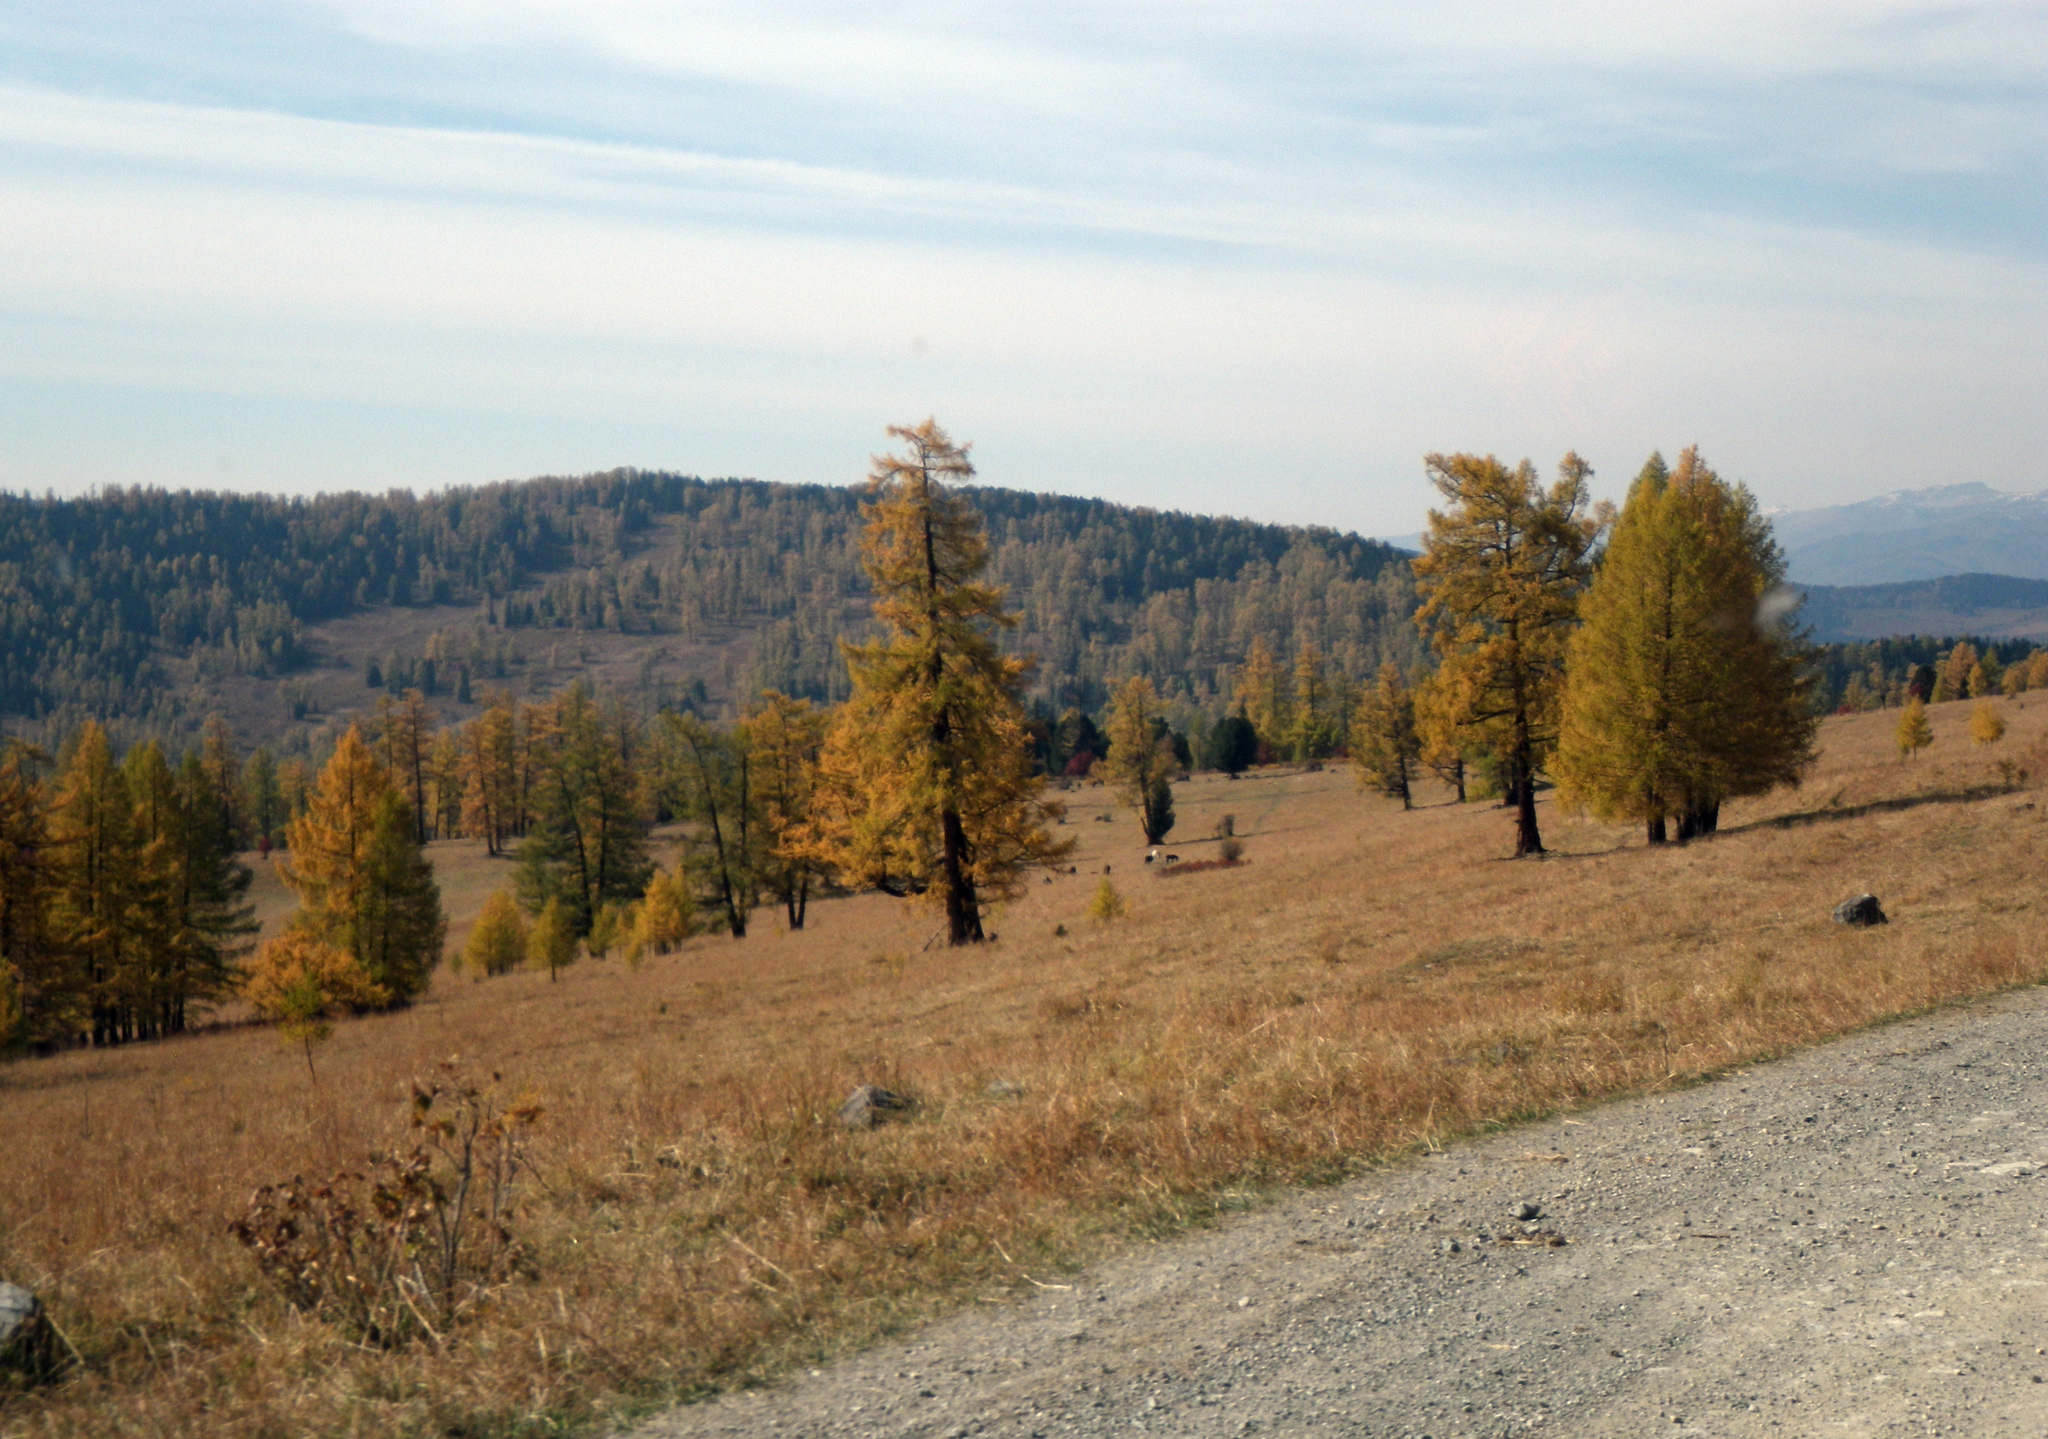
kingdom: Plantae
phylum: Tracheophyta
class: Pinopsida
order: Pinales
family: Pinaceae
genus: Larix
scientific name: Larix sibirica
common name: Siberian larch
